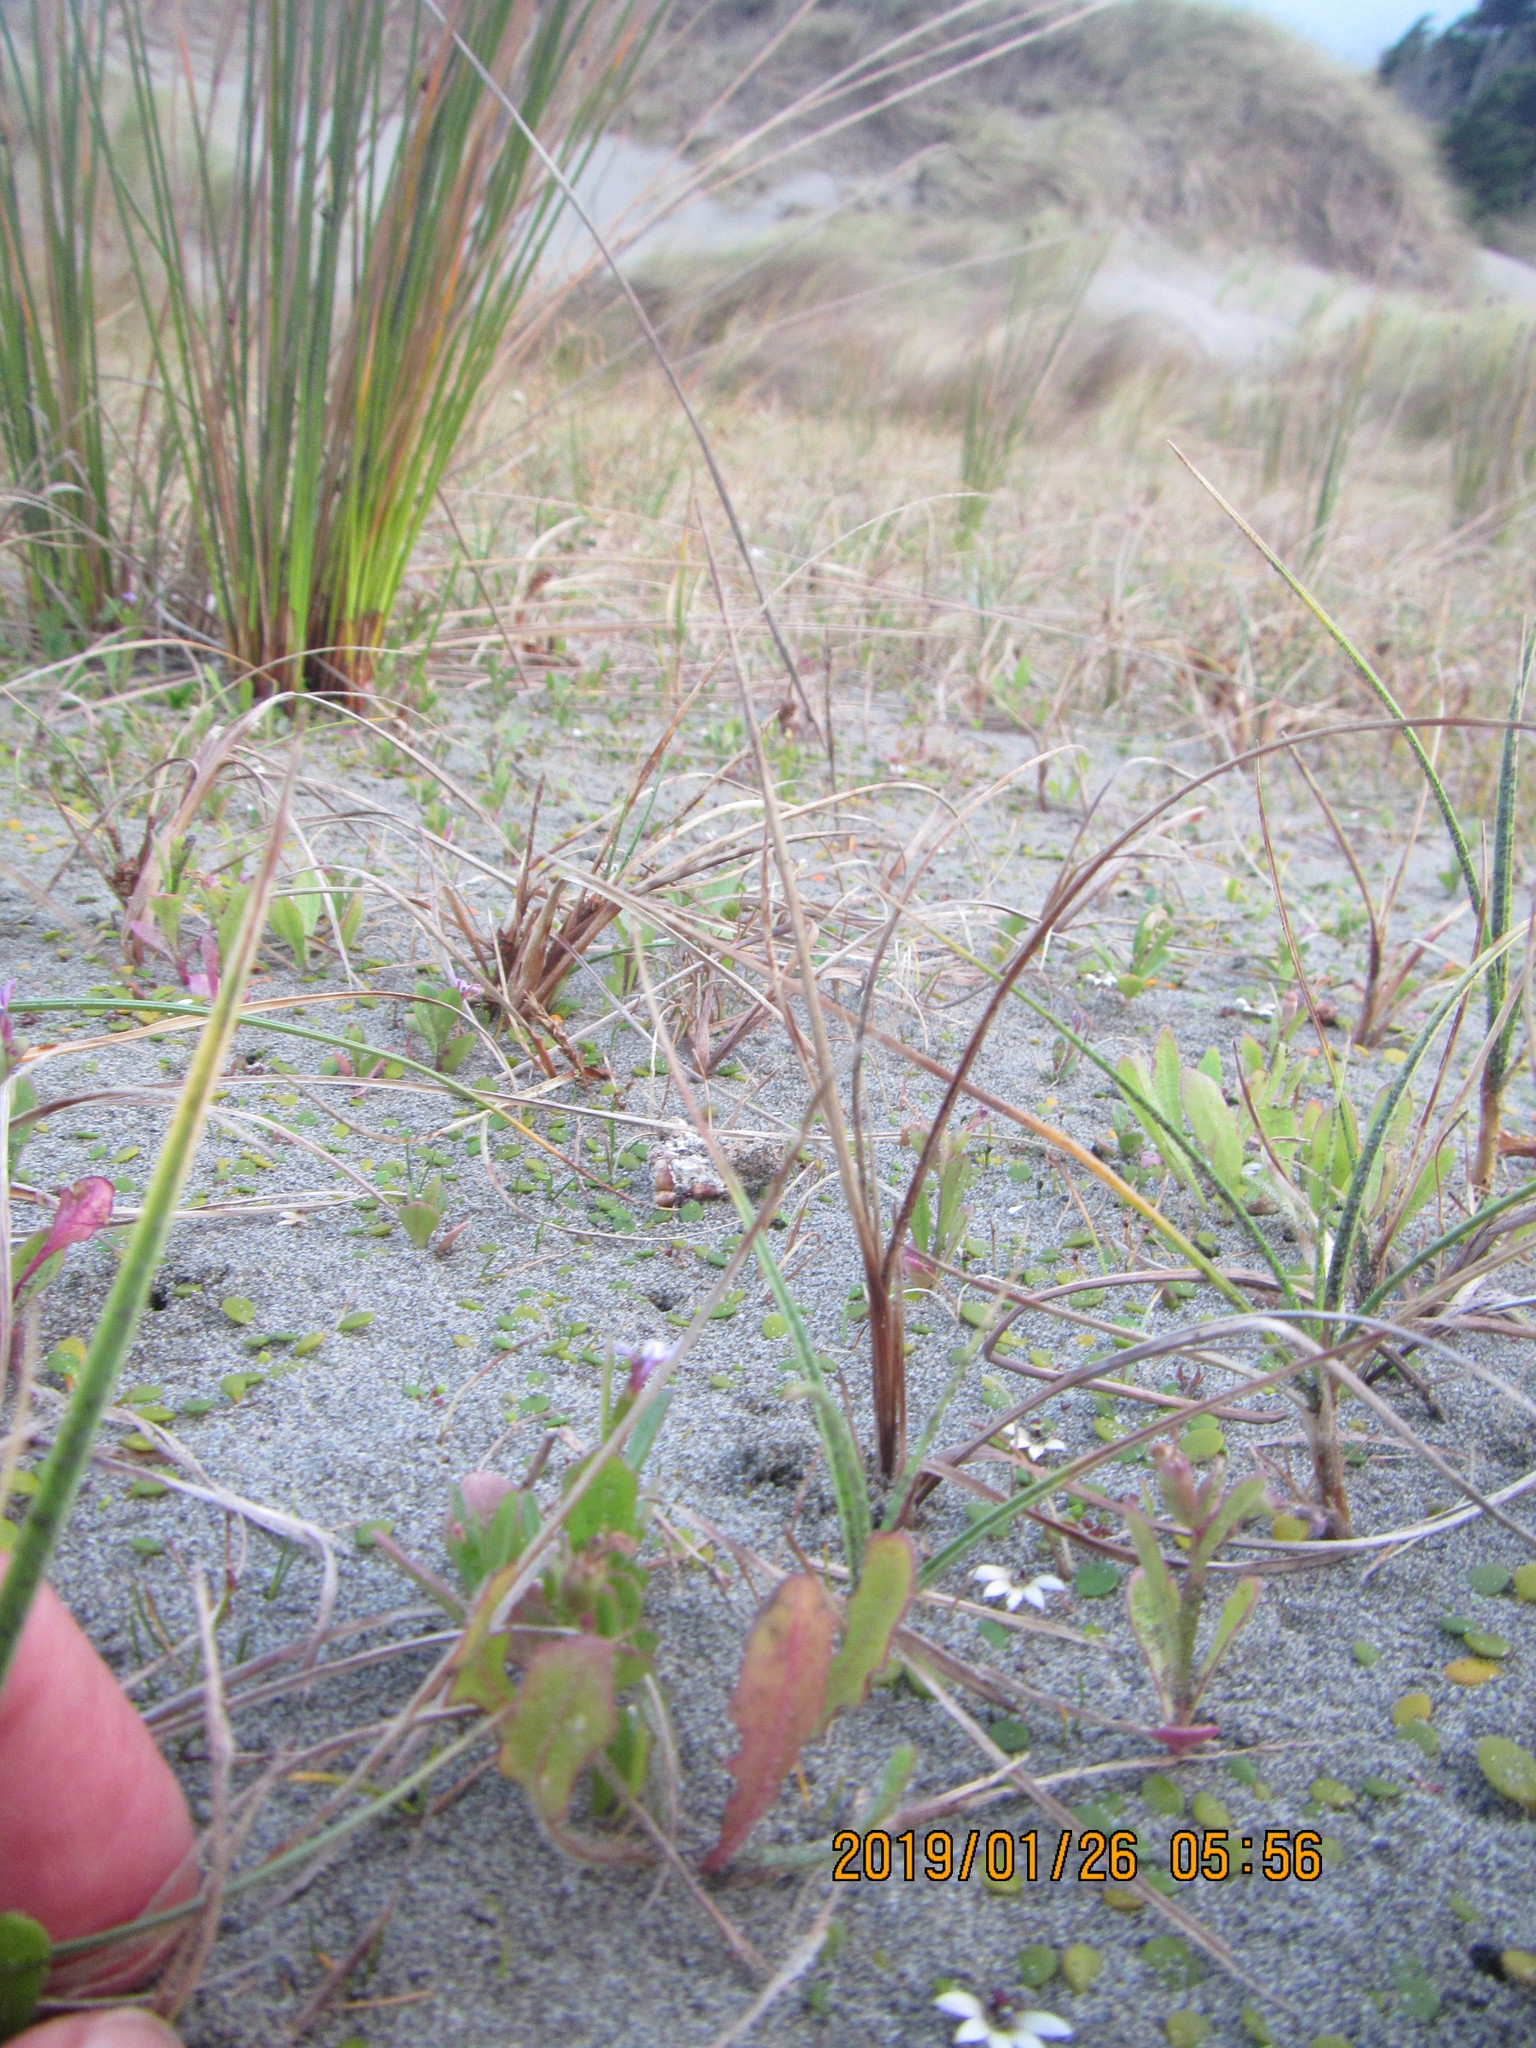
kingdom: Plantae
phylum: Tracheophyta
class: Magnoliopsida
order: Asterales
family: Campanulaceae
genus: Lobelia
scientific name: Lobelia anceps
